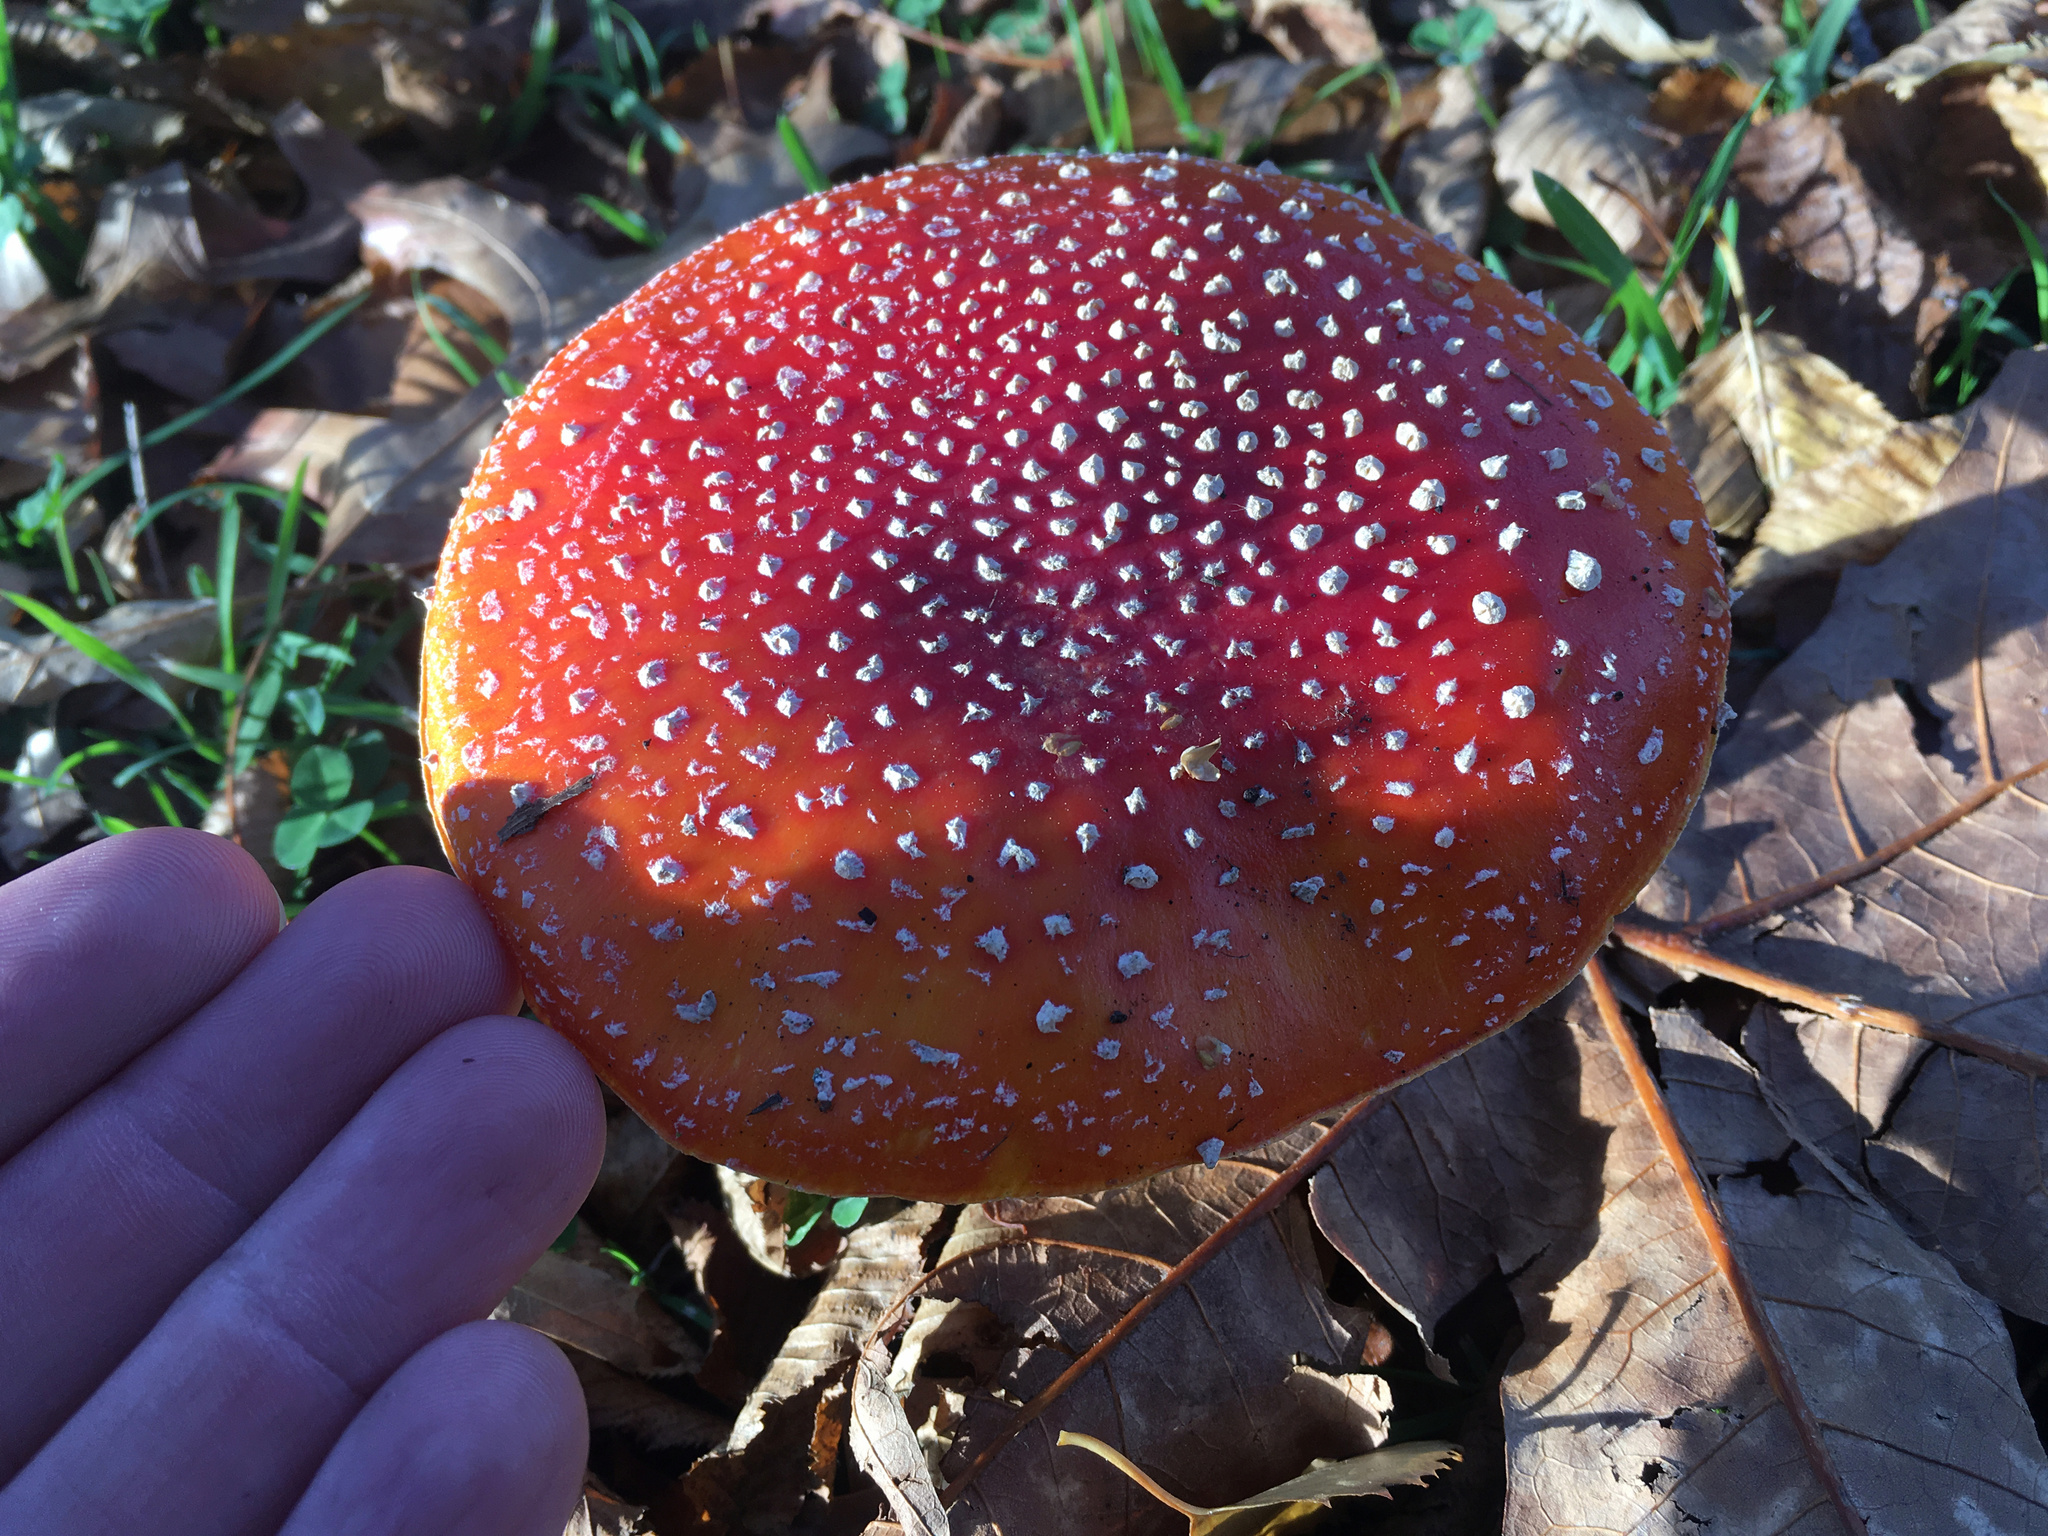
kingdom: Fungi
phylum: Basidiomycota
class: Agaricomycetes
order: Agaricales
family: Amanitaceae
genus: Amanita
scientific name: Amanita muscaria
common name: Fly agaric
